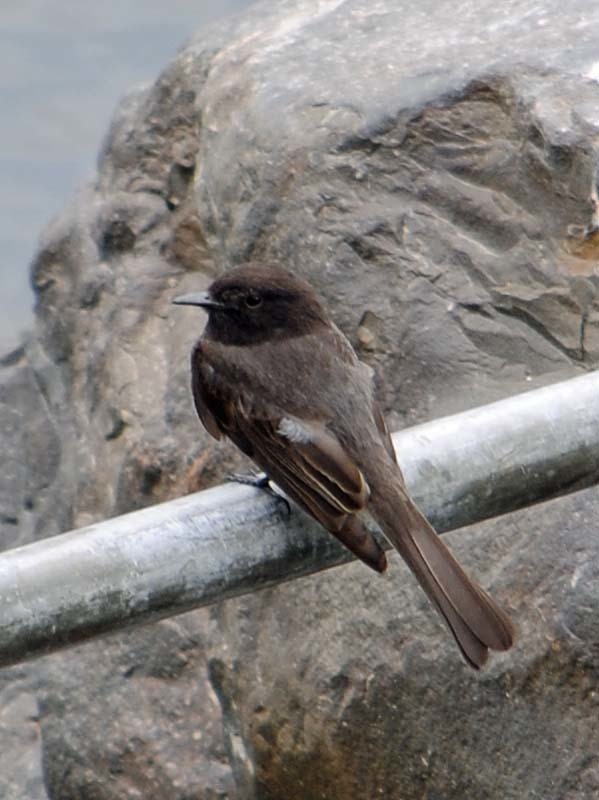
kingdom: Animalia
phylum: Chordata
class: Aves
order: Passeriformes
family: Tyrannidae
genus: Sayornis
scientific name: Sayornis nigricans
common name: Black phoebe
